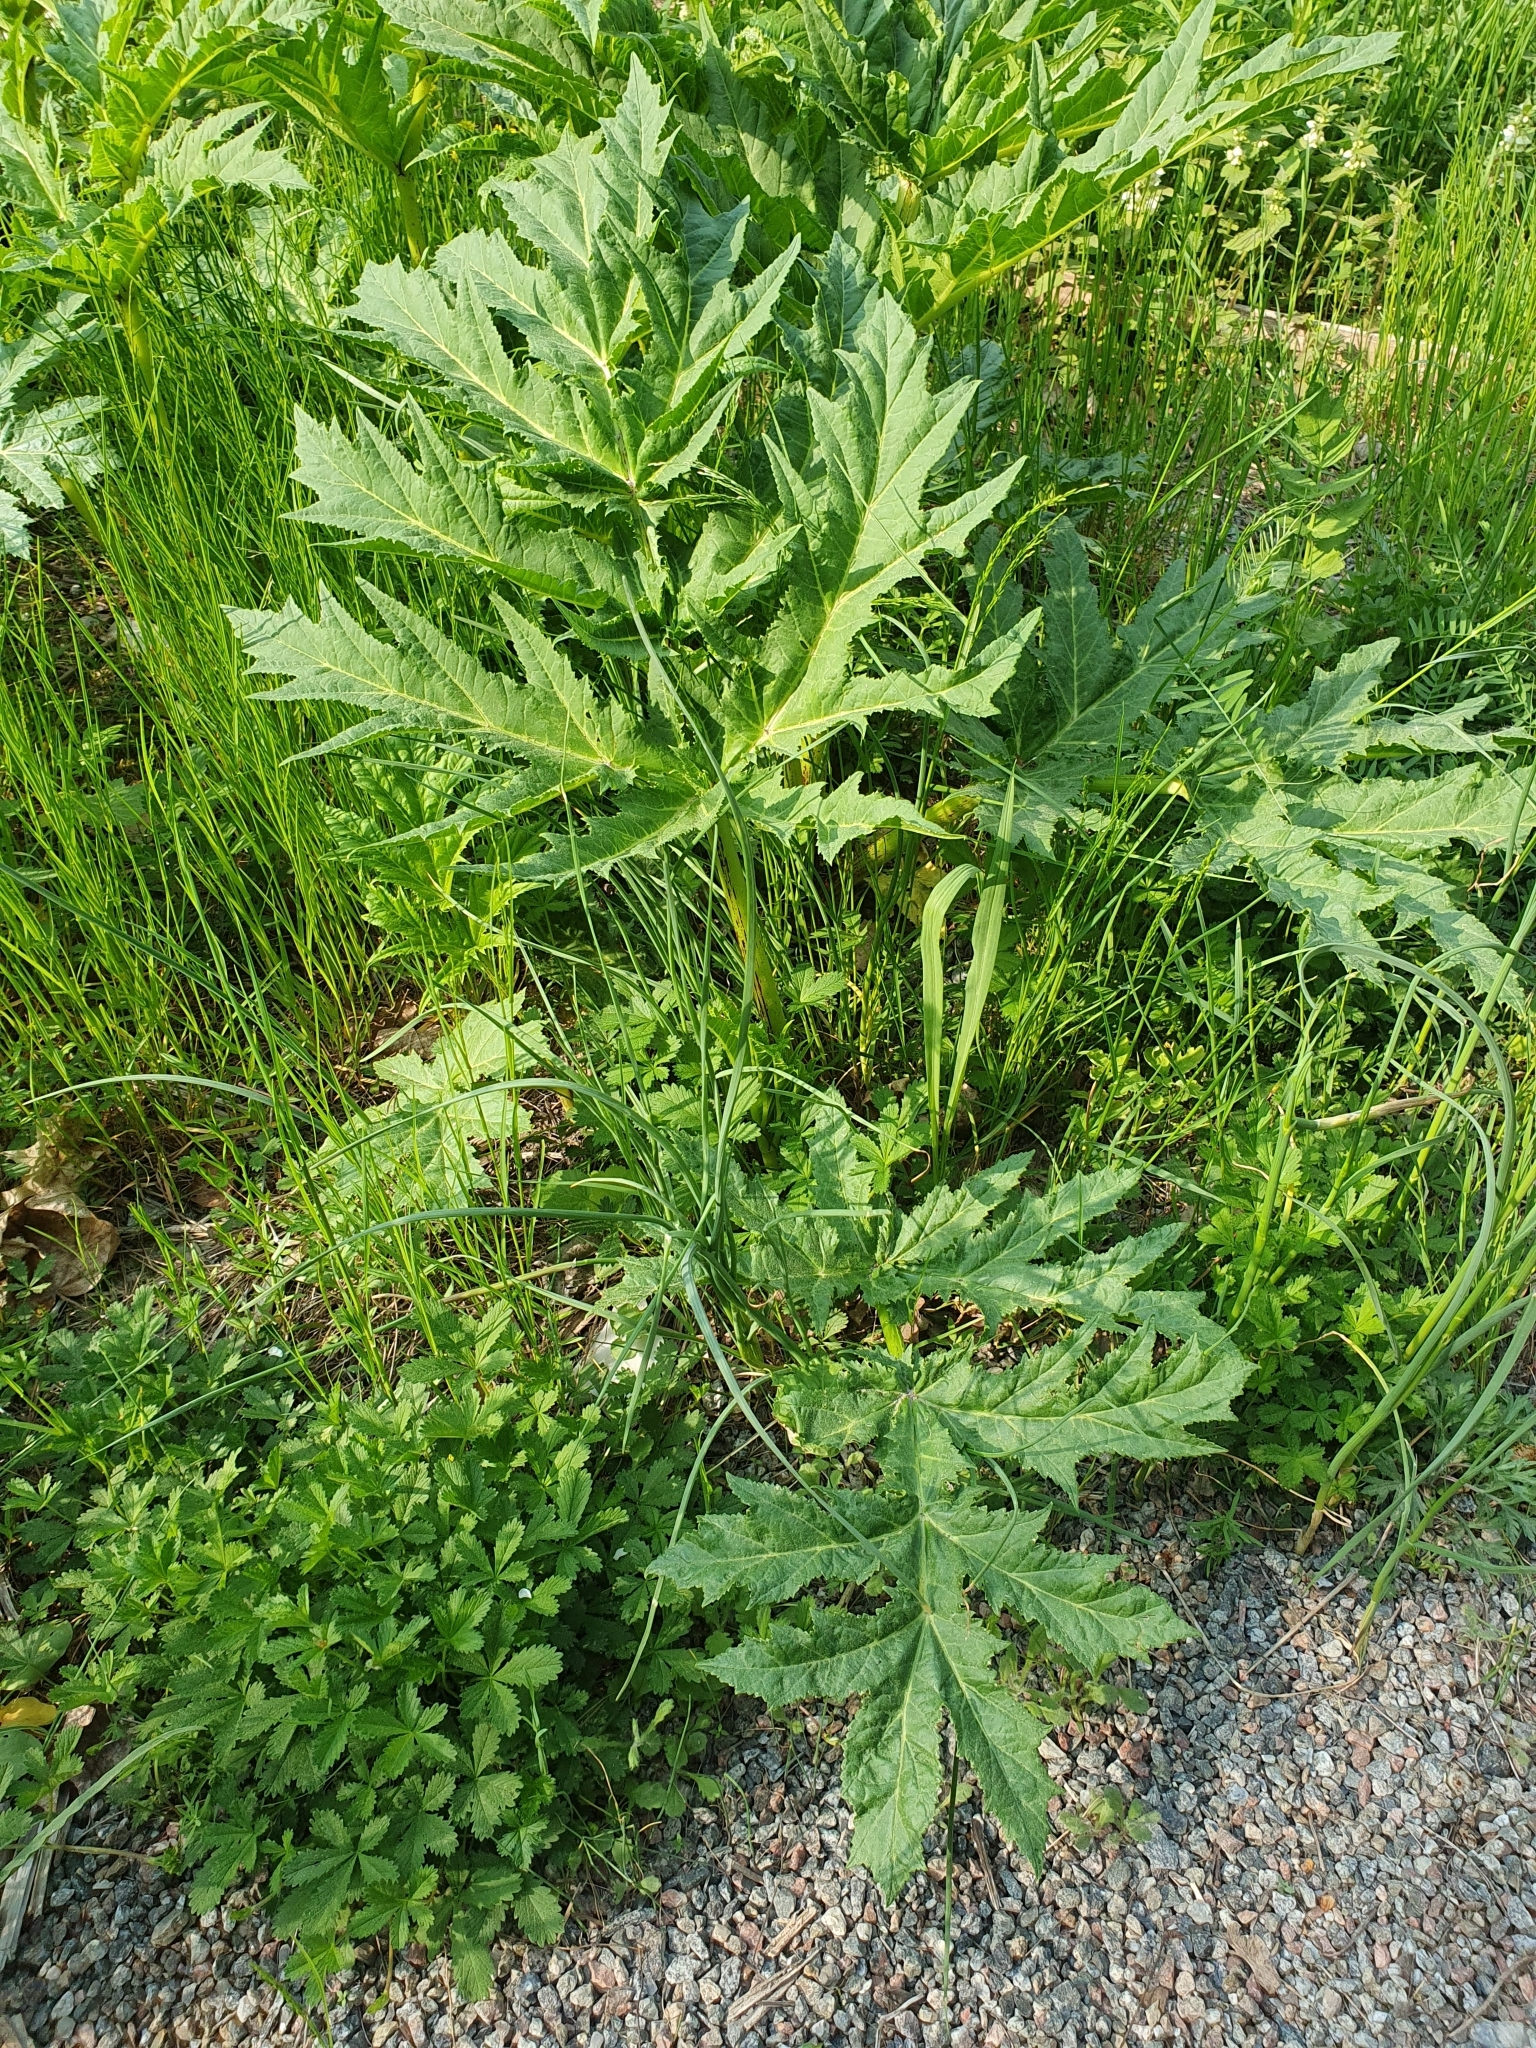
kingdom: Plantae
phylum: Tracheophyta
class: Magnoliopsida
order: Apiales
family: Apiaceae
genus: Heracleum
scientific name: Heracleum mantegazzianum
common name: Giant hogweed
